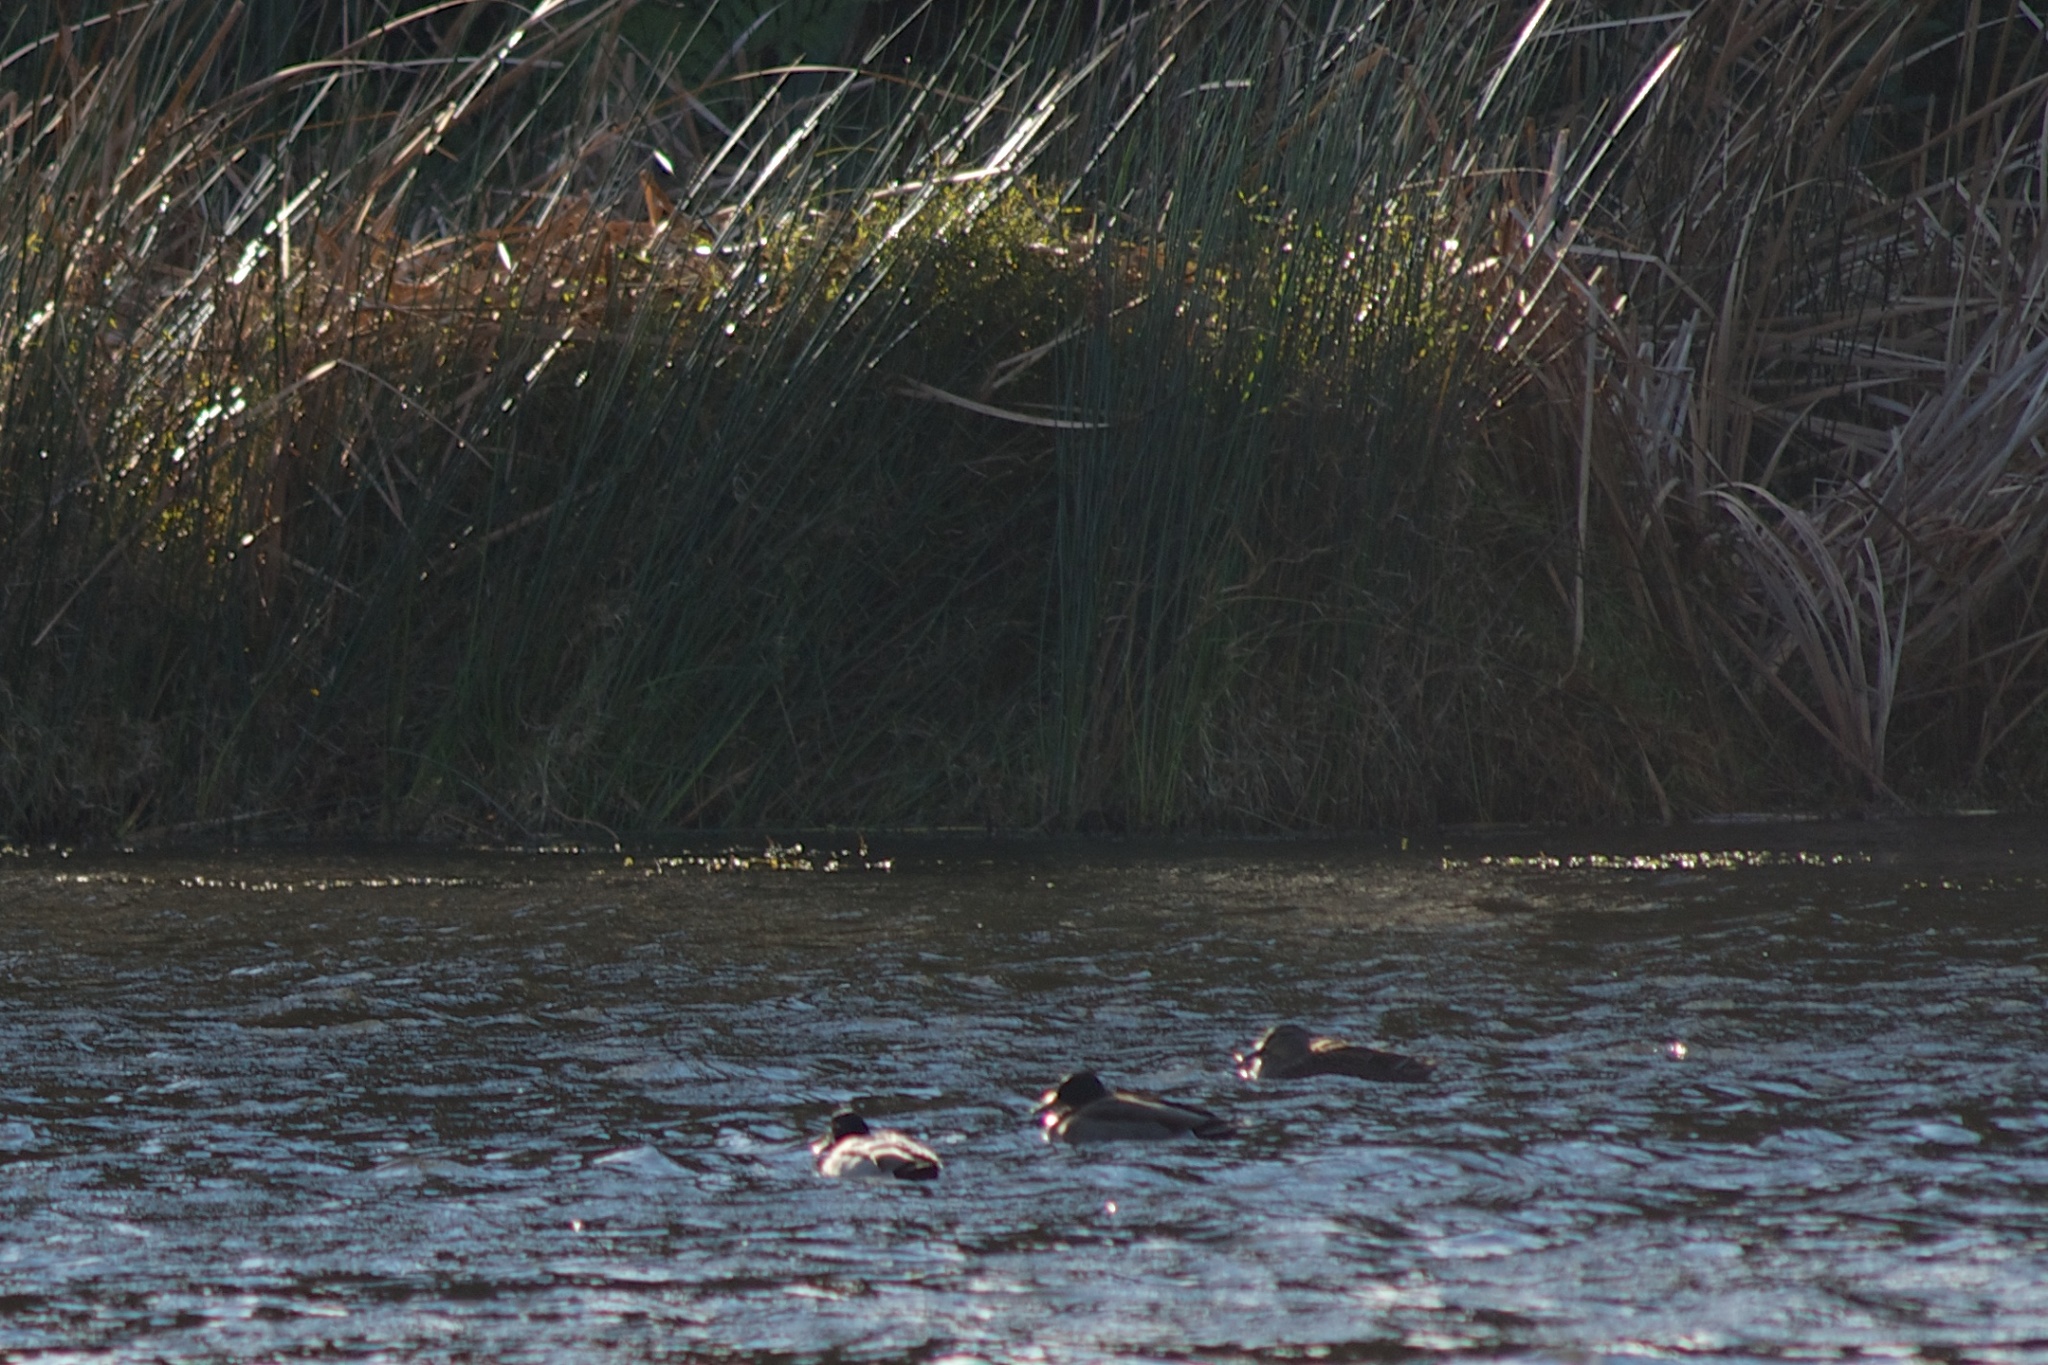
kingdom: Animalia
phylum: Chordata
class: Aves
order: Anseriformes
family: Anatidae
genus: Anas
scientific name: Anas platyrhynchos
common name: Mallard
